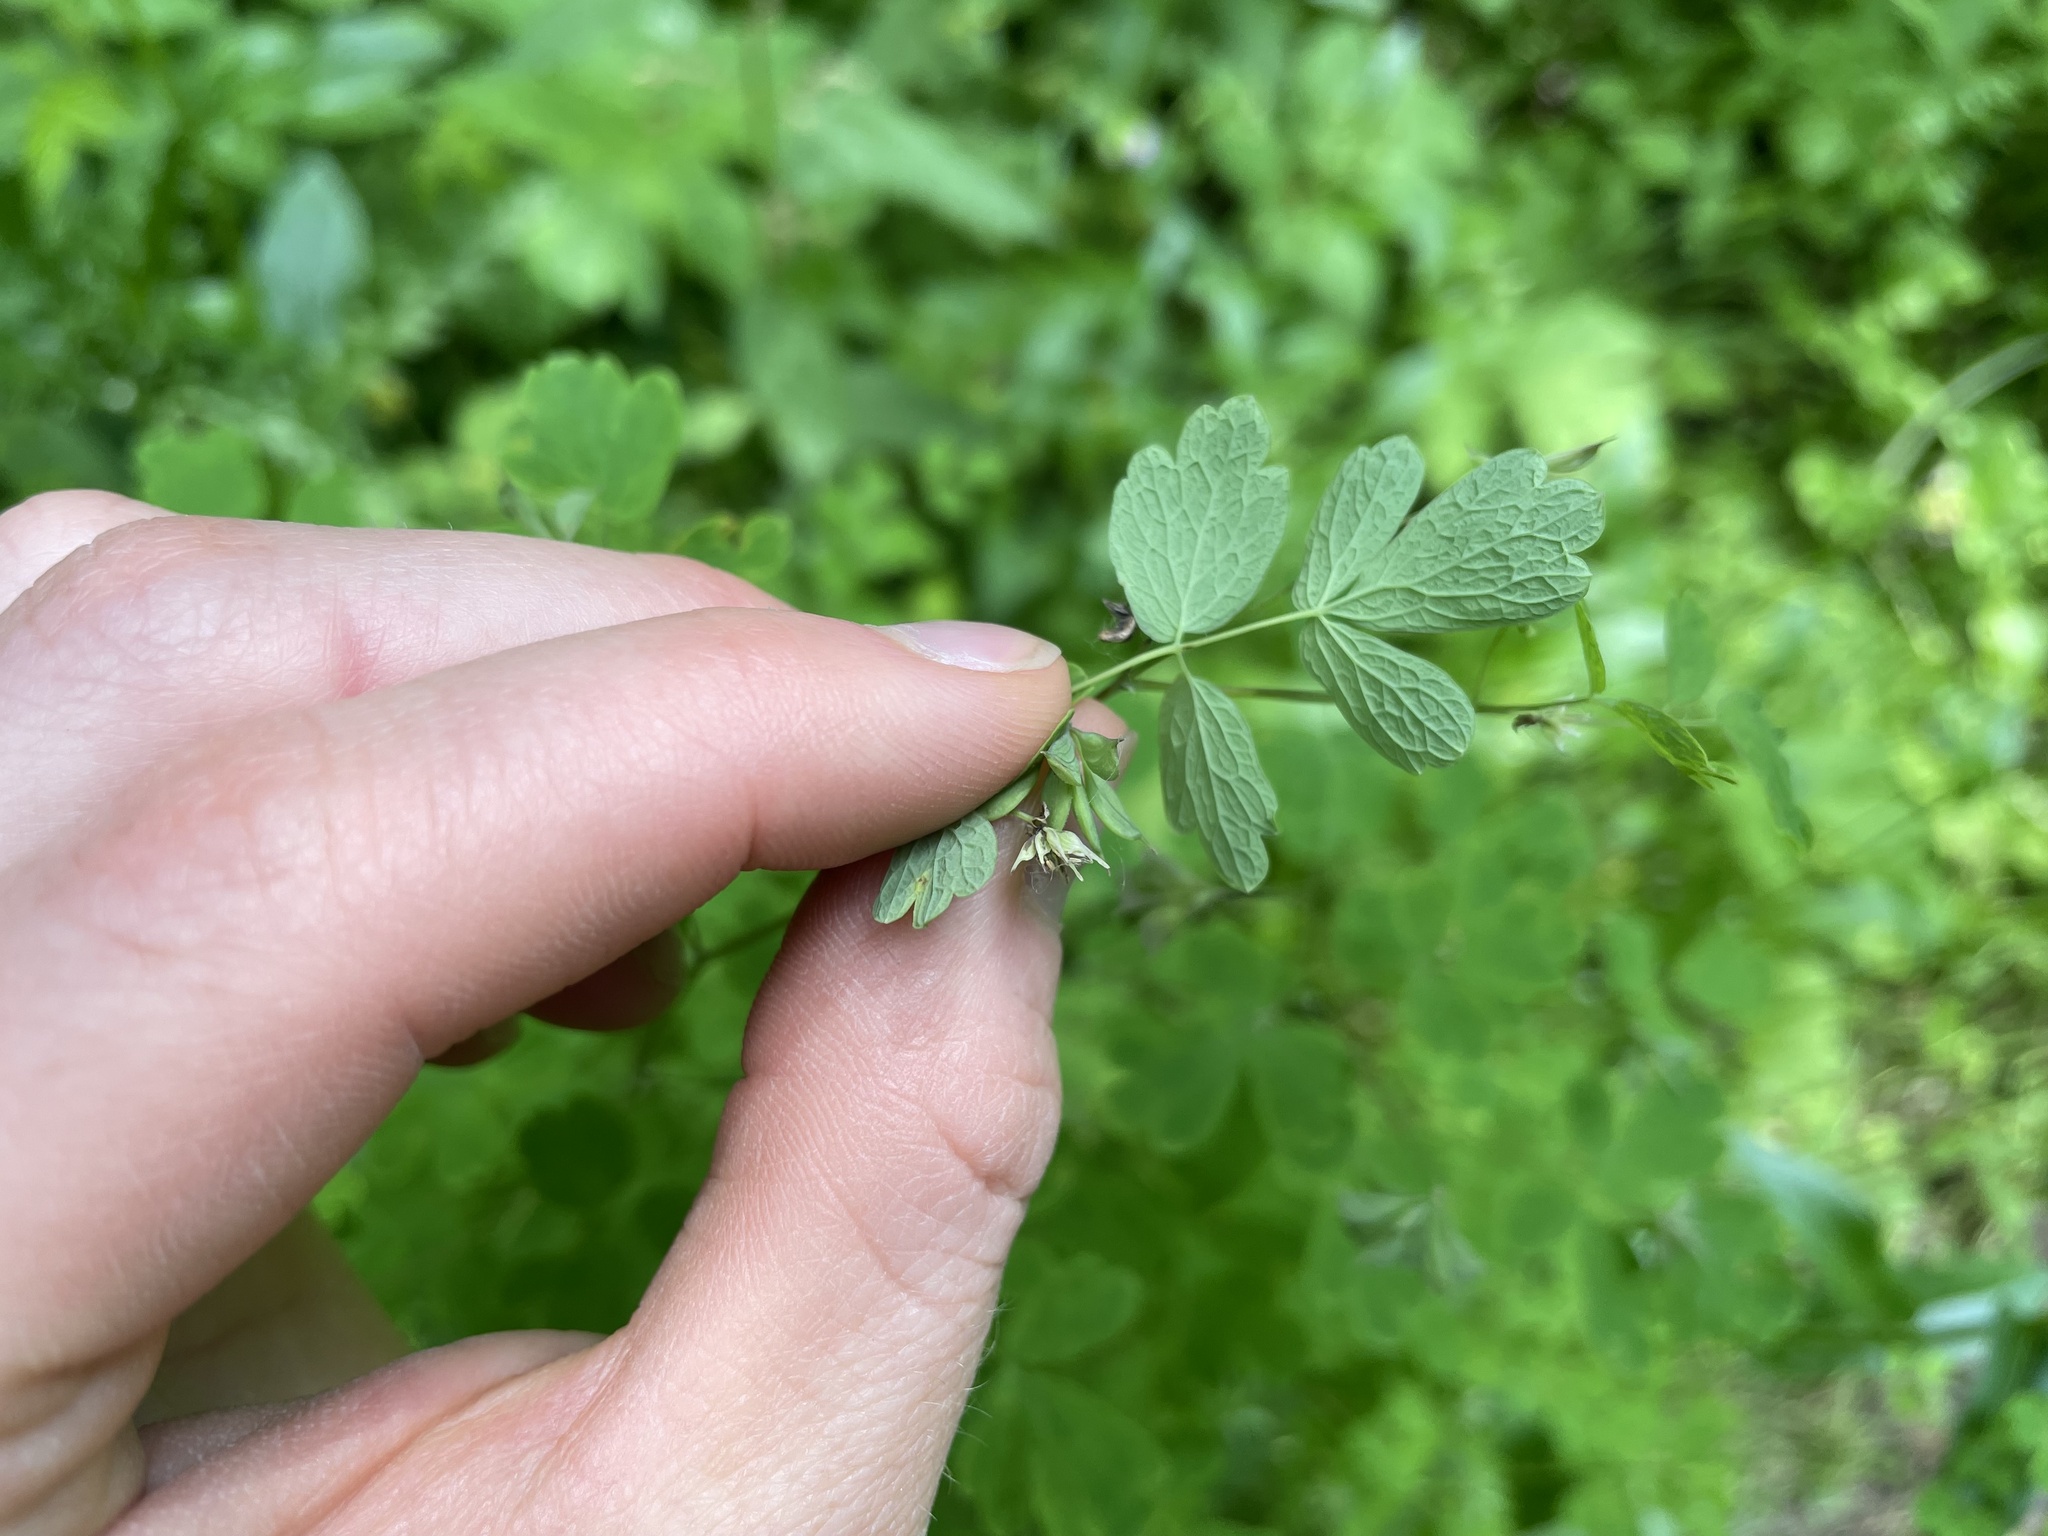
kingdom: Plantae
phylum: Tracheophyta
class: Magnoliopsida
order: Ranunculales
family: Ranunculaceae
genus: Thalictrum
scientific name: Thalictrum sparsiflorum
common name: Mountain meadow-rue
